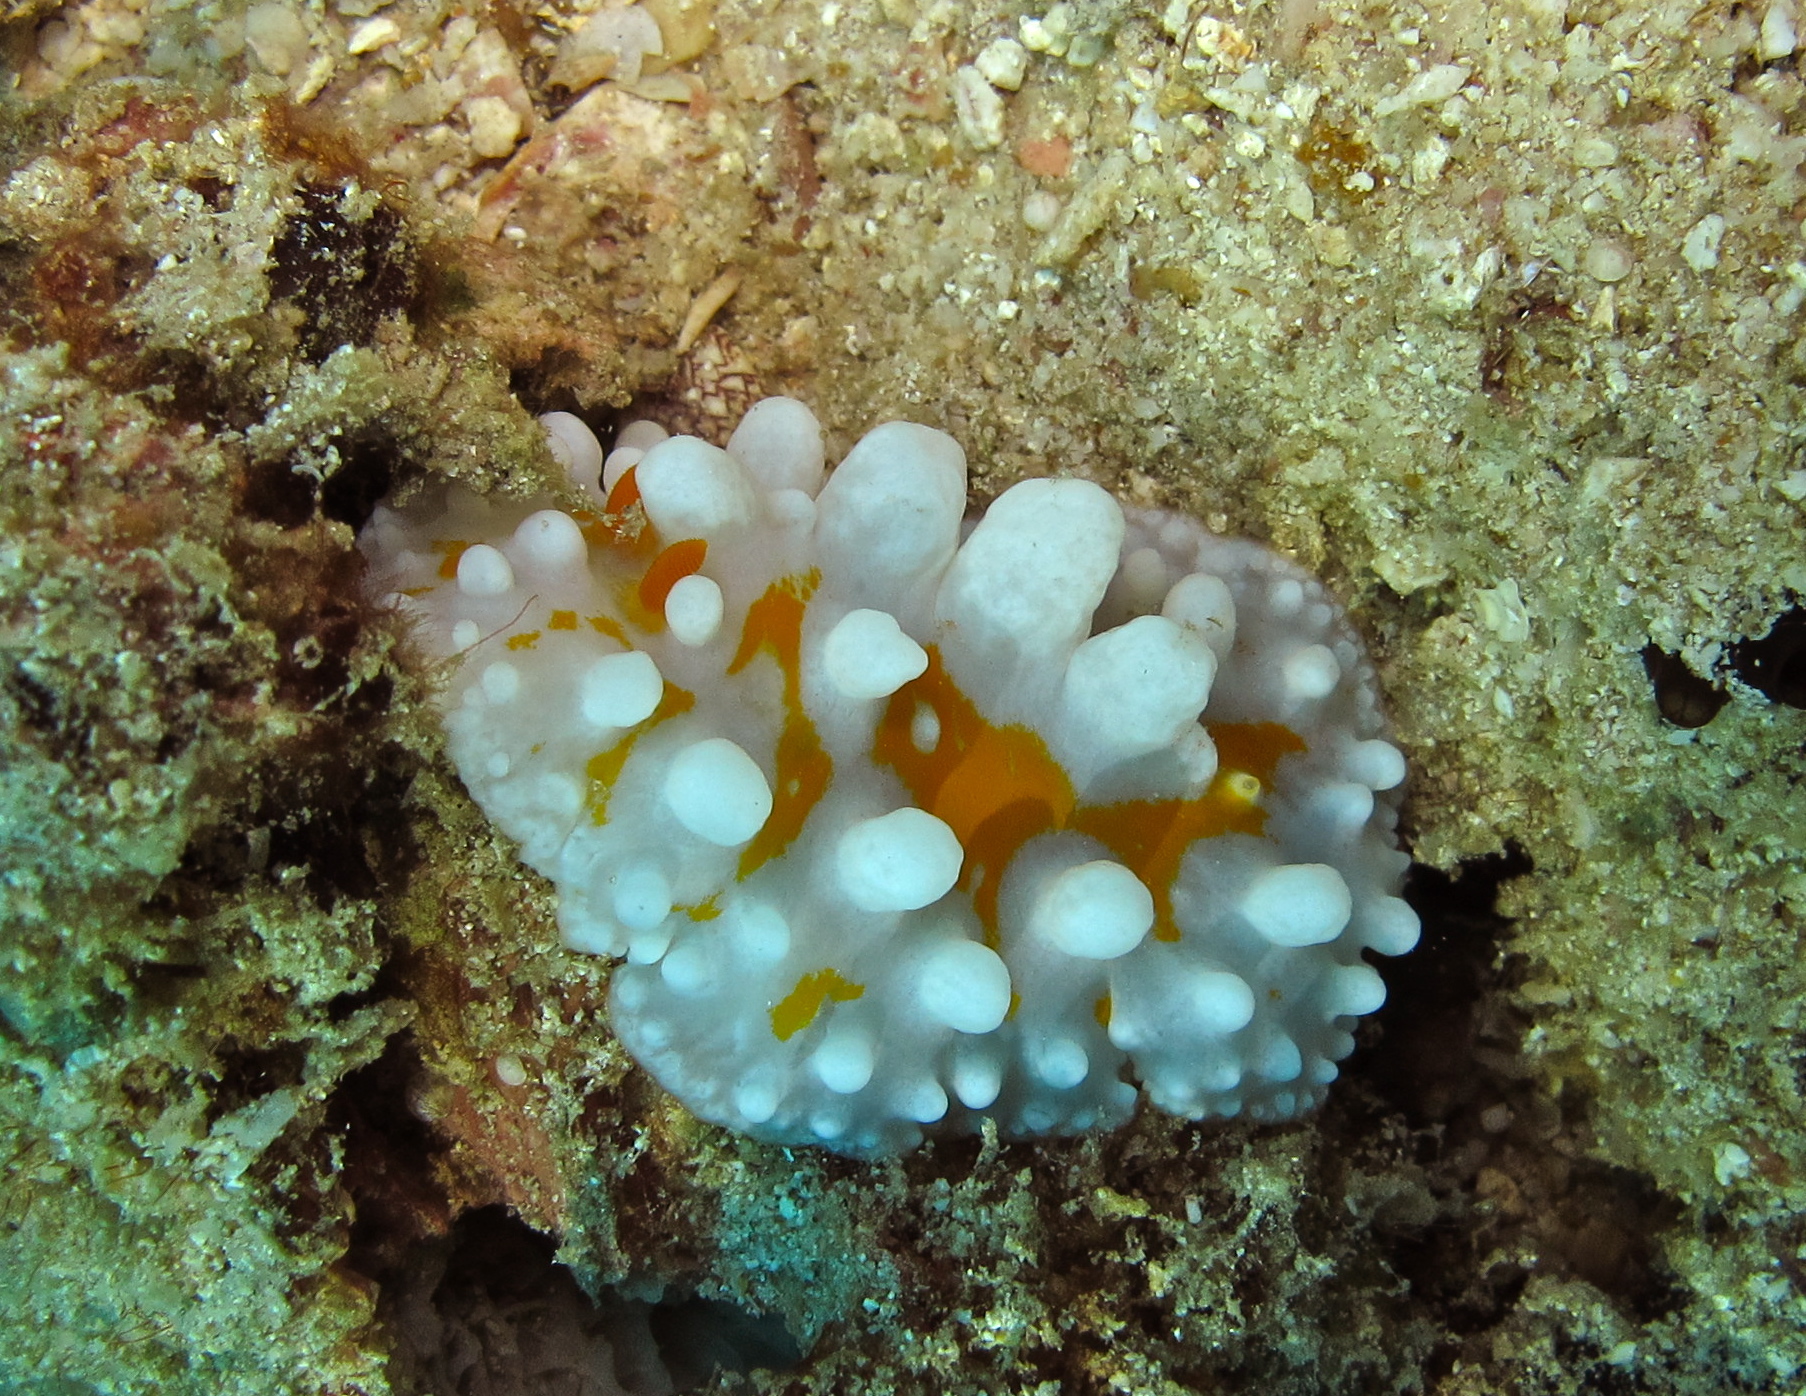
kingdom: Animalia
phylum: Mollusca
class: Gastropoda
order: Nudibranchia
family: Phyllidiidae
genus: Phyllidia
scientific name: Phyllidia ocellata
